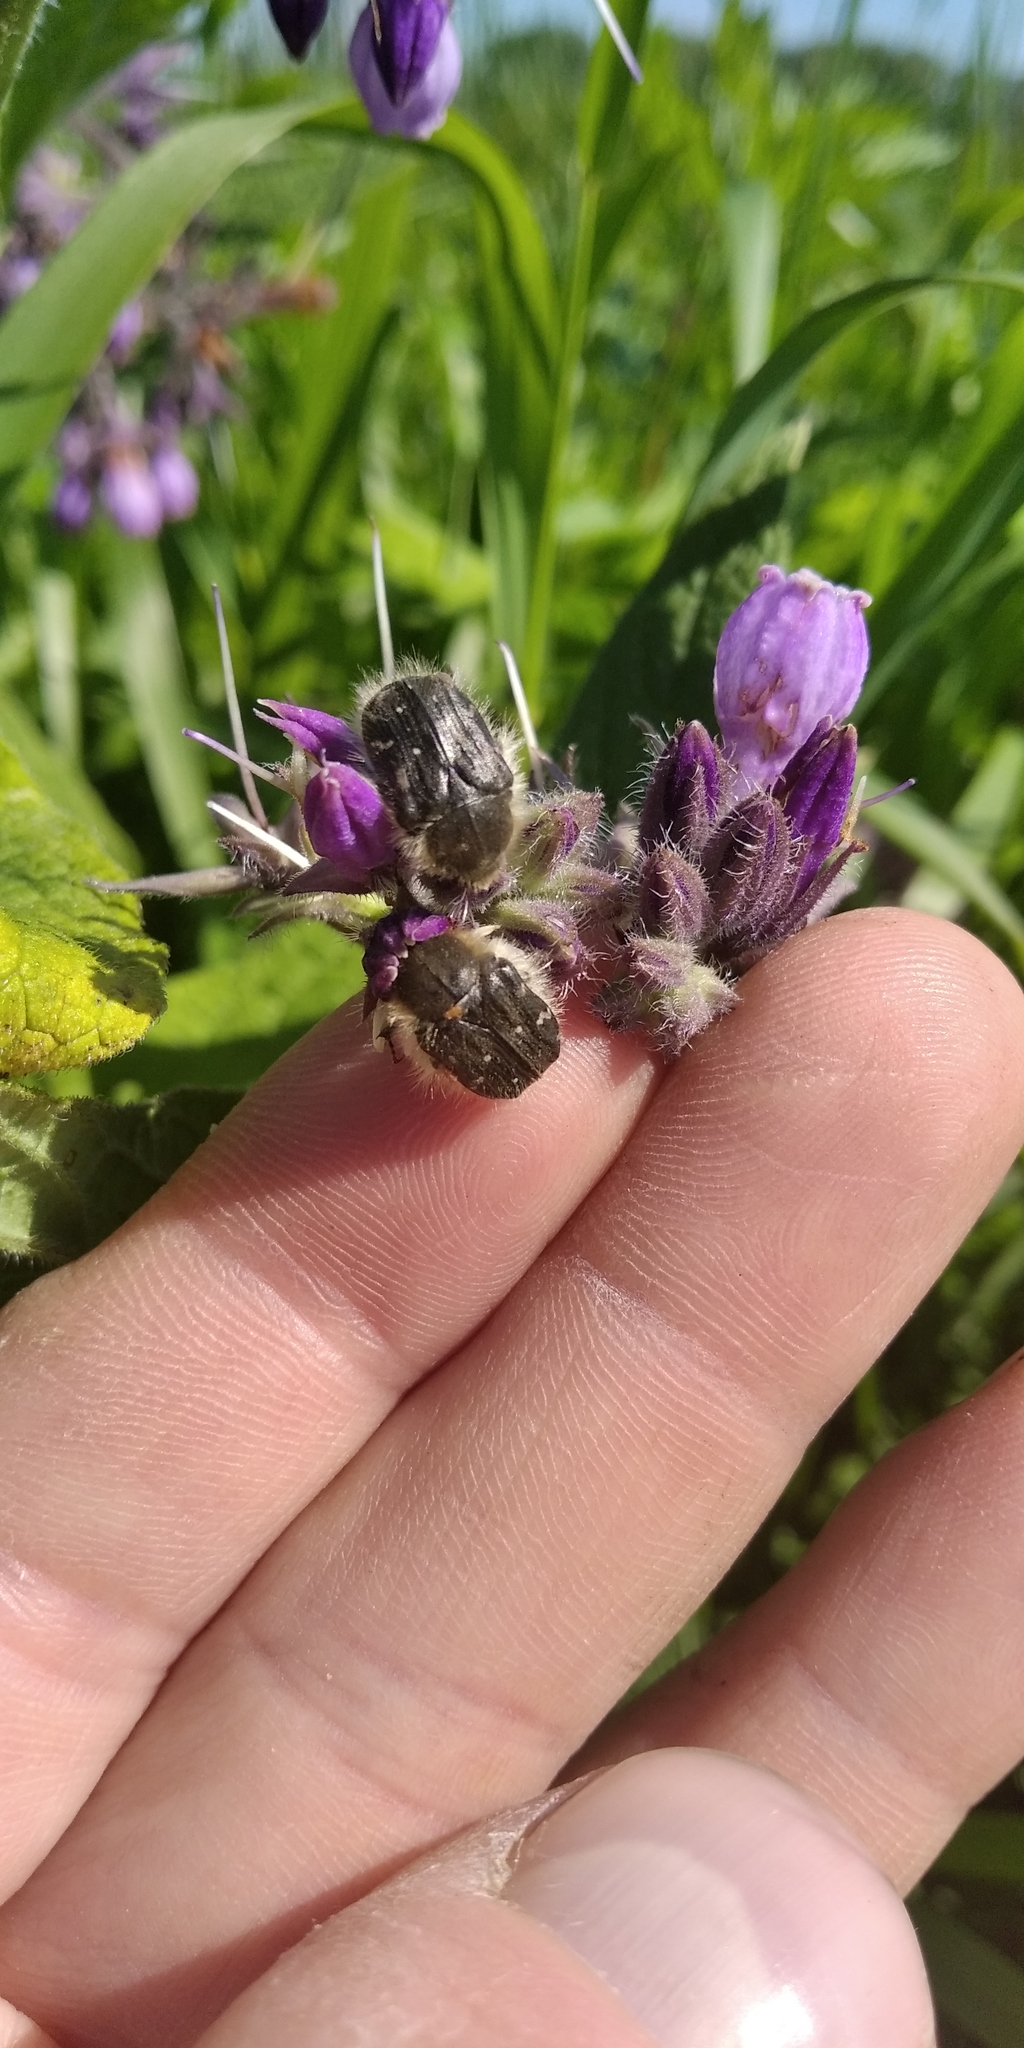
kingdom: Animalia
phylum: Arthropoda
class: Insecta
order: Coleoptera
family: Scarabaeidae
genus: Tropinota
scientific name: Tropinota hirta
